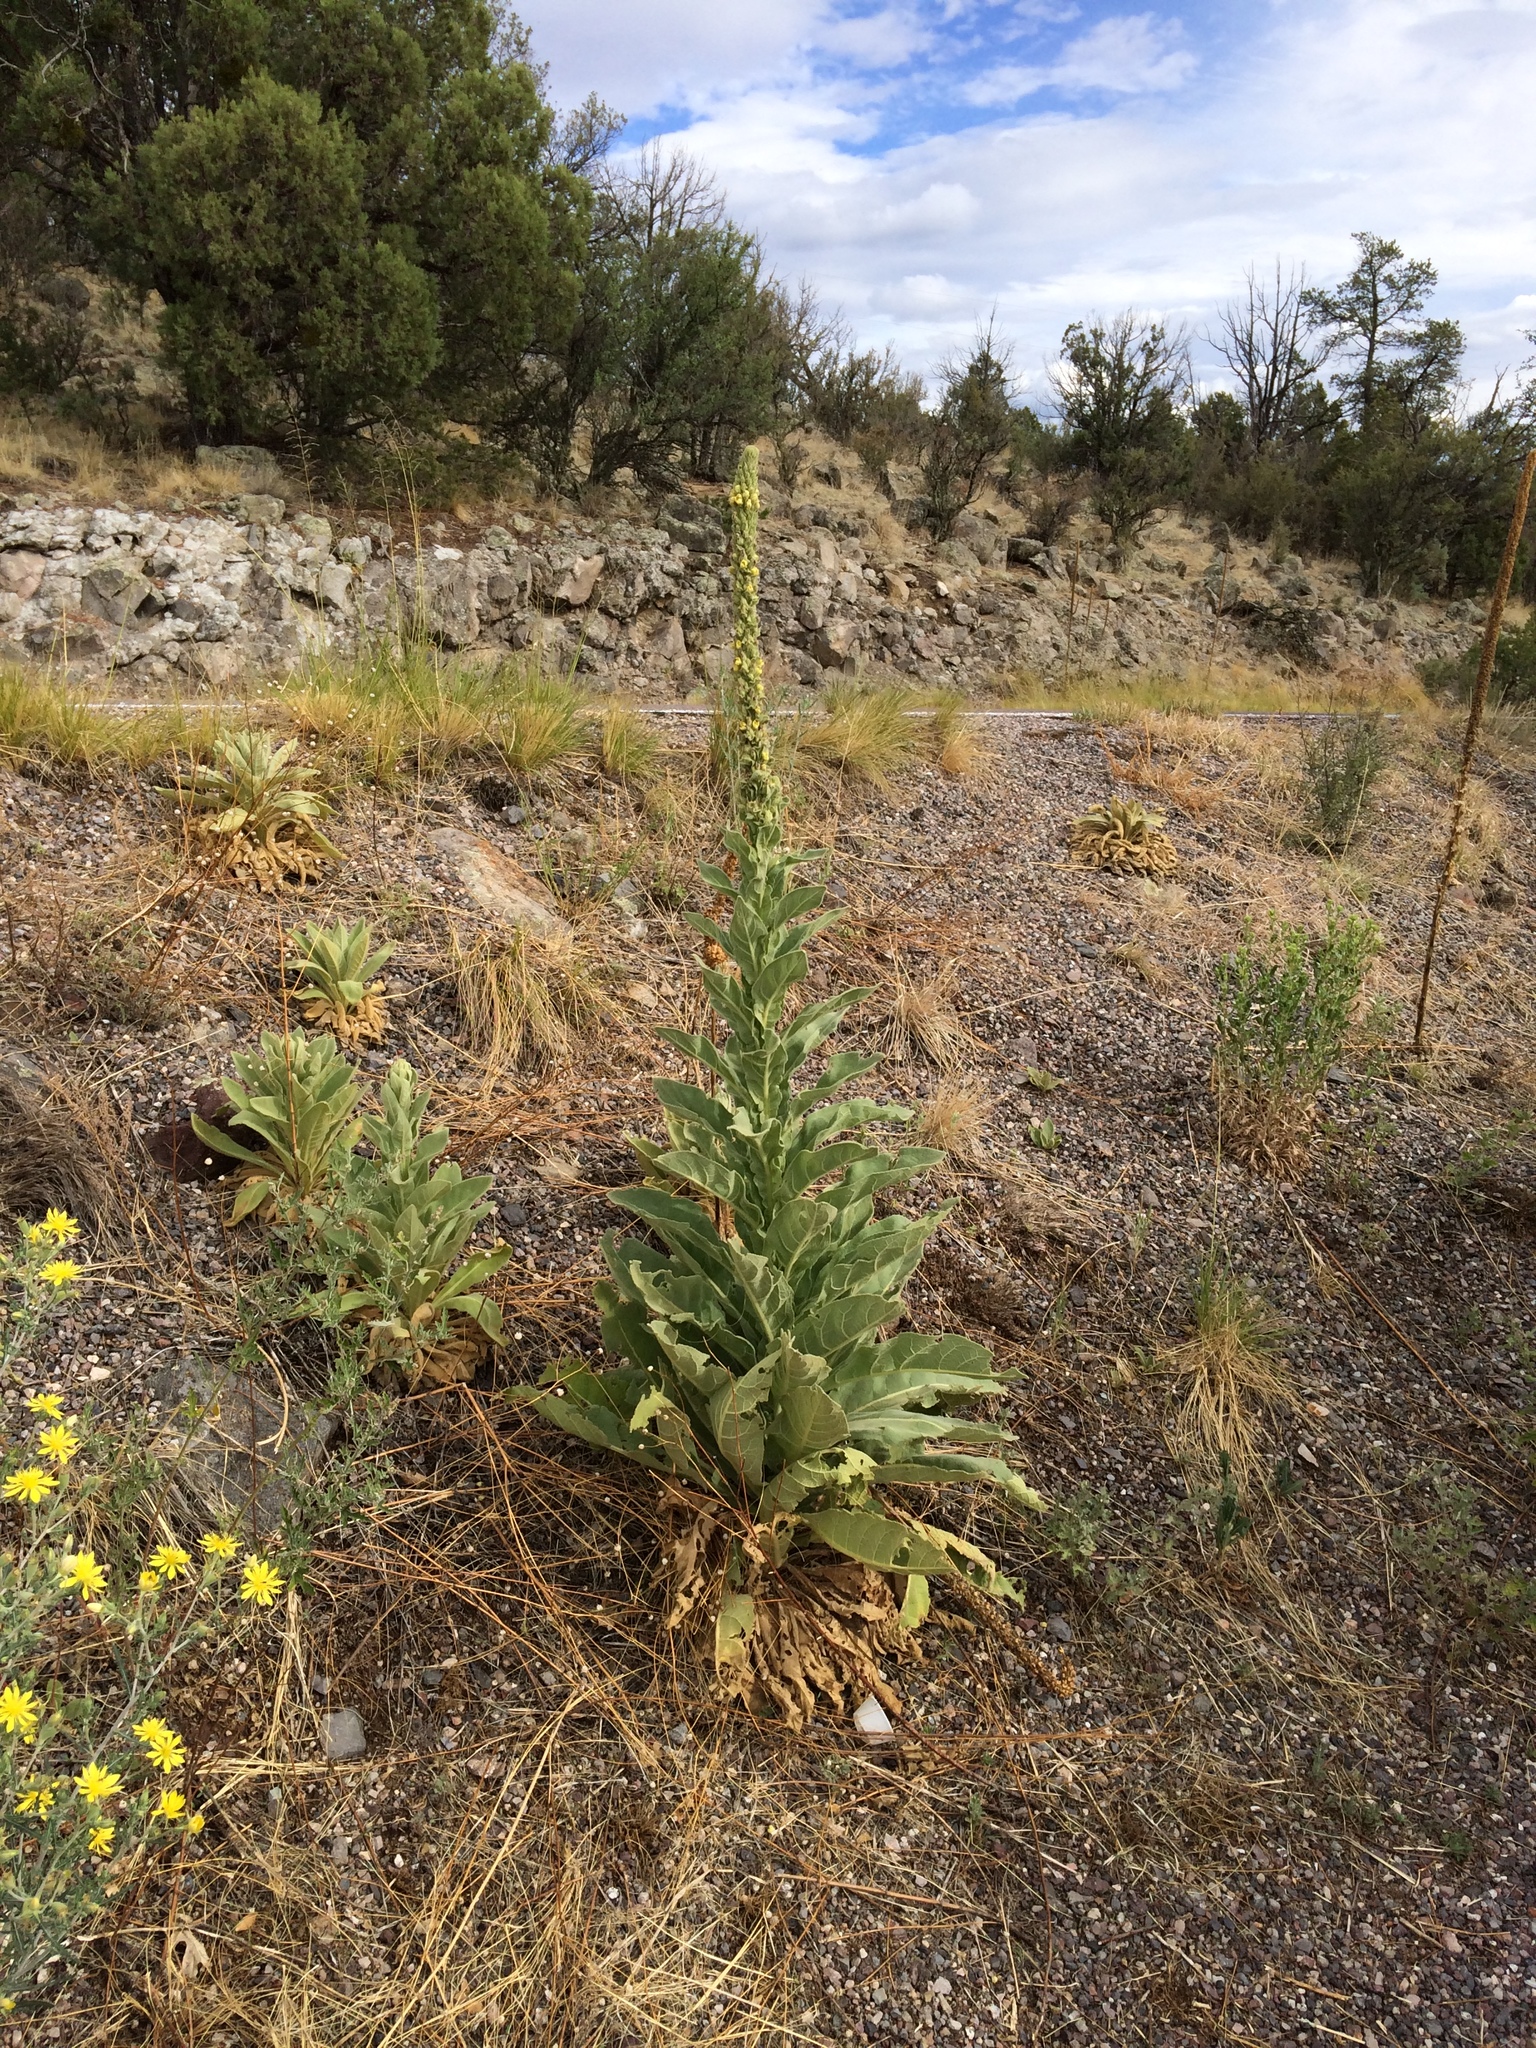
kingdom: Plantae
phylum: Tracheophyta
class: Magnoliopsida
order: Lamiales
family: Scrophulariaceae
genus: Verbascum
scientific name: Verbascum thapsus
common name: Common mullein
